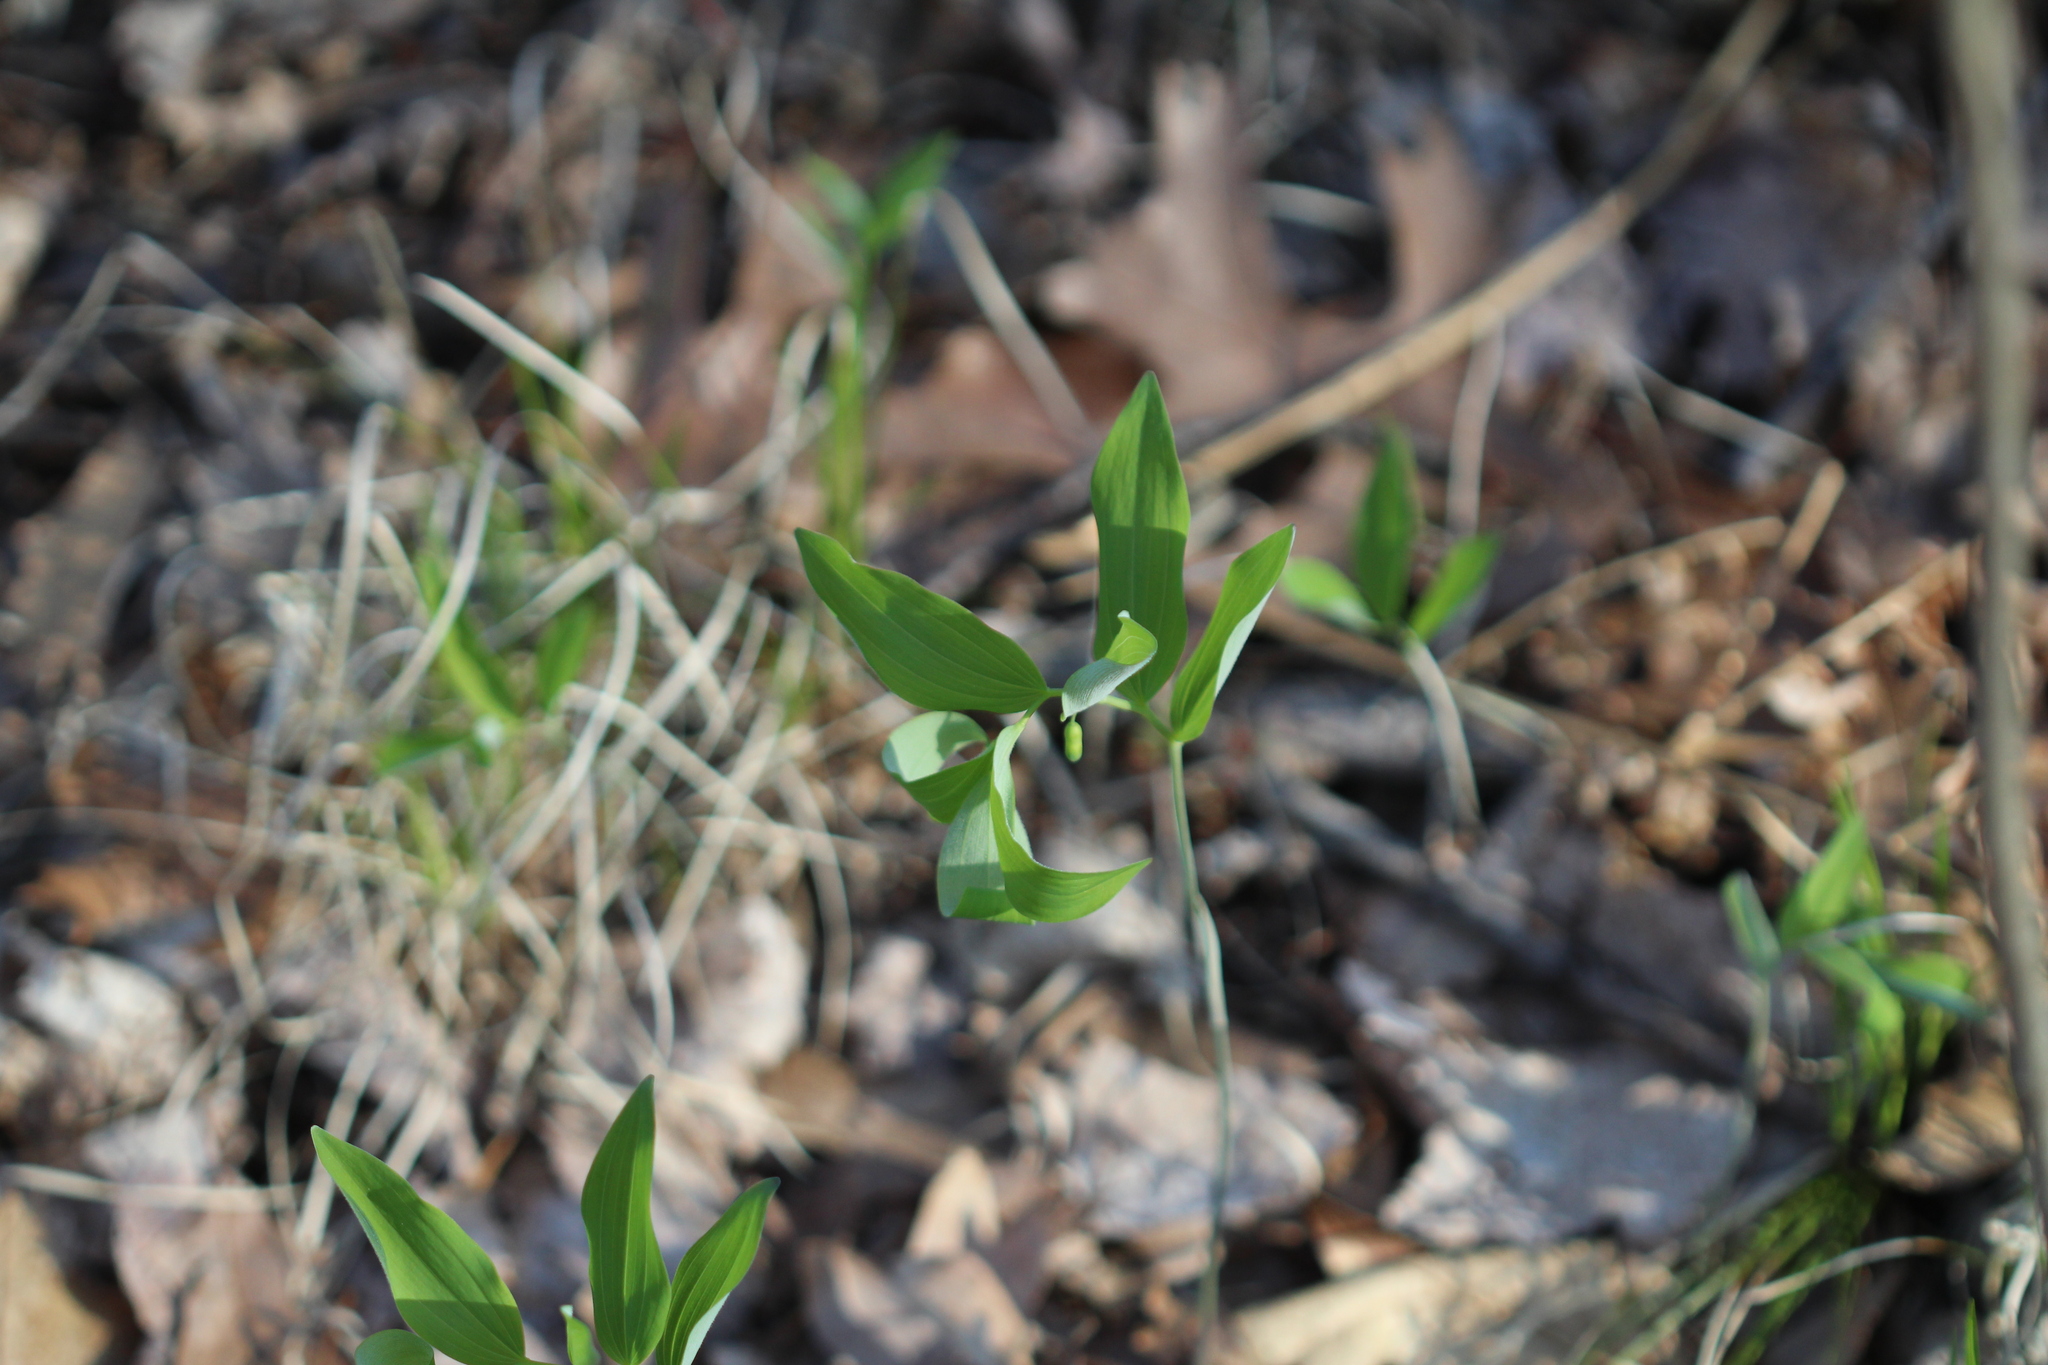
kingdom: Plantae
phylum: Tracheophyta
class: Liliopsida
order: Asparagales
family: Asparagaceae
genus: Polygonatum
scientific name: Polygonatum pubescens
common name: Downy solomon's seal
